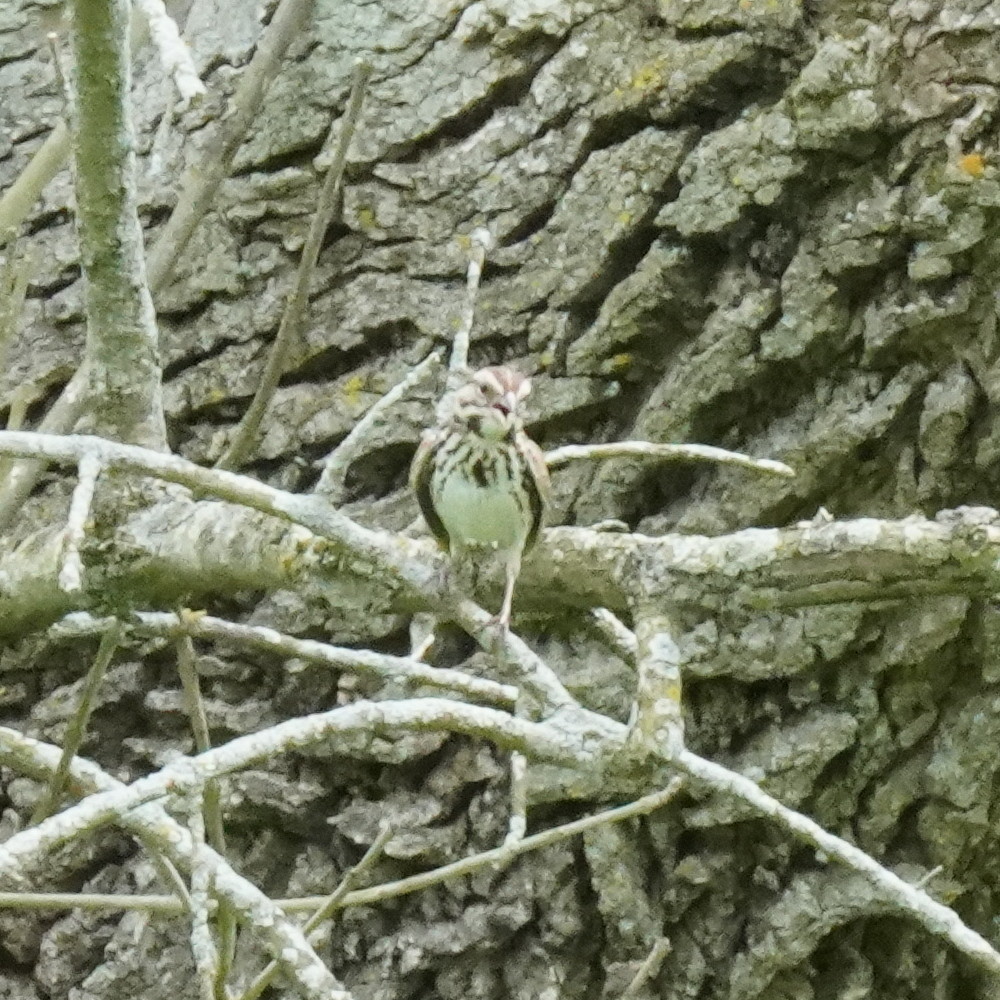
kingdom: Animalia
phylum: Chordata
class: Aves
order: Passeriformes
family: Passerellidae
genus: Melospiza
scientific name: Melospiza melodia
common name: Song sparrow
